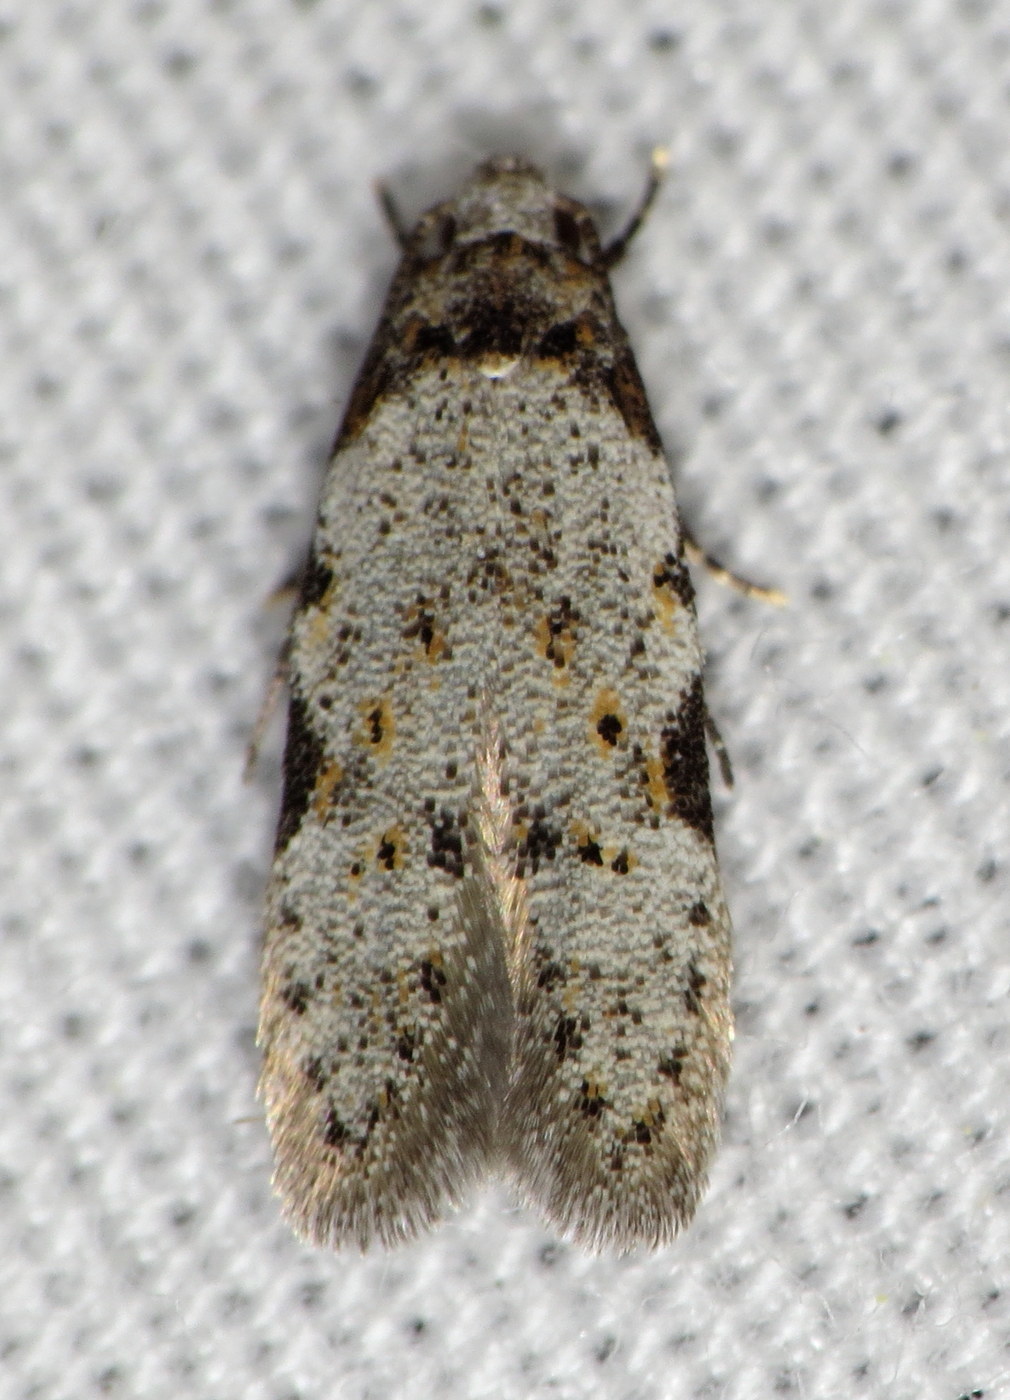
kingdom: Animalia
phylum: Arthropoda
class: Insecta
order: Lepidoptera
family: Autostichidae
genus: Taygete
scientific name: Taygete attributella
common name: Triangle-marked twirler moth
